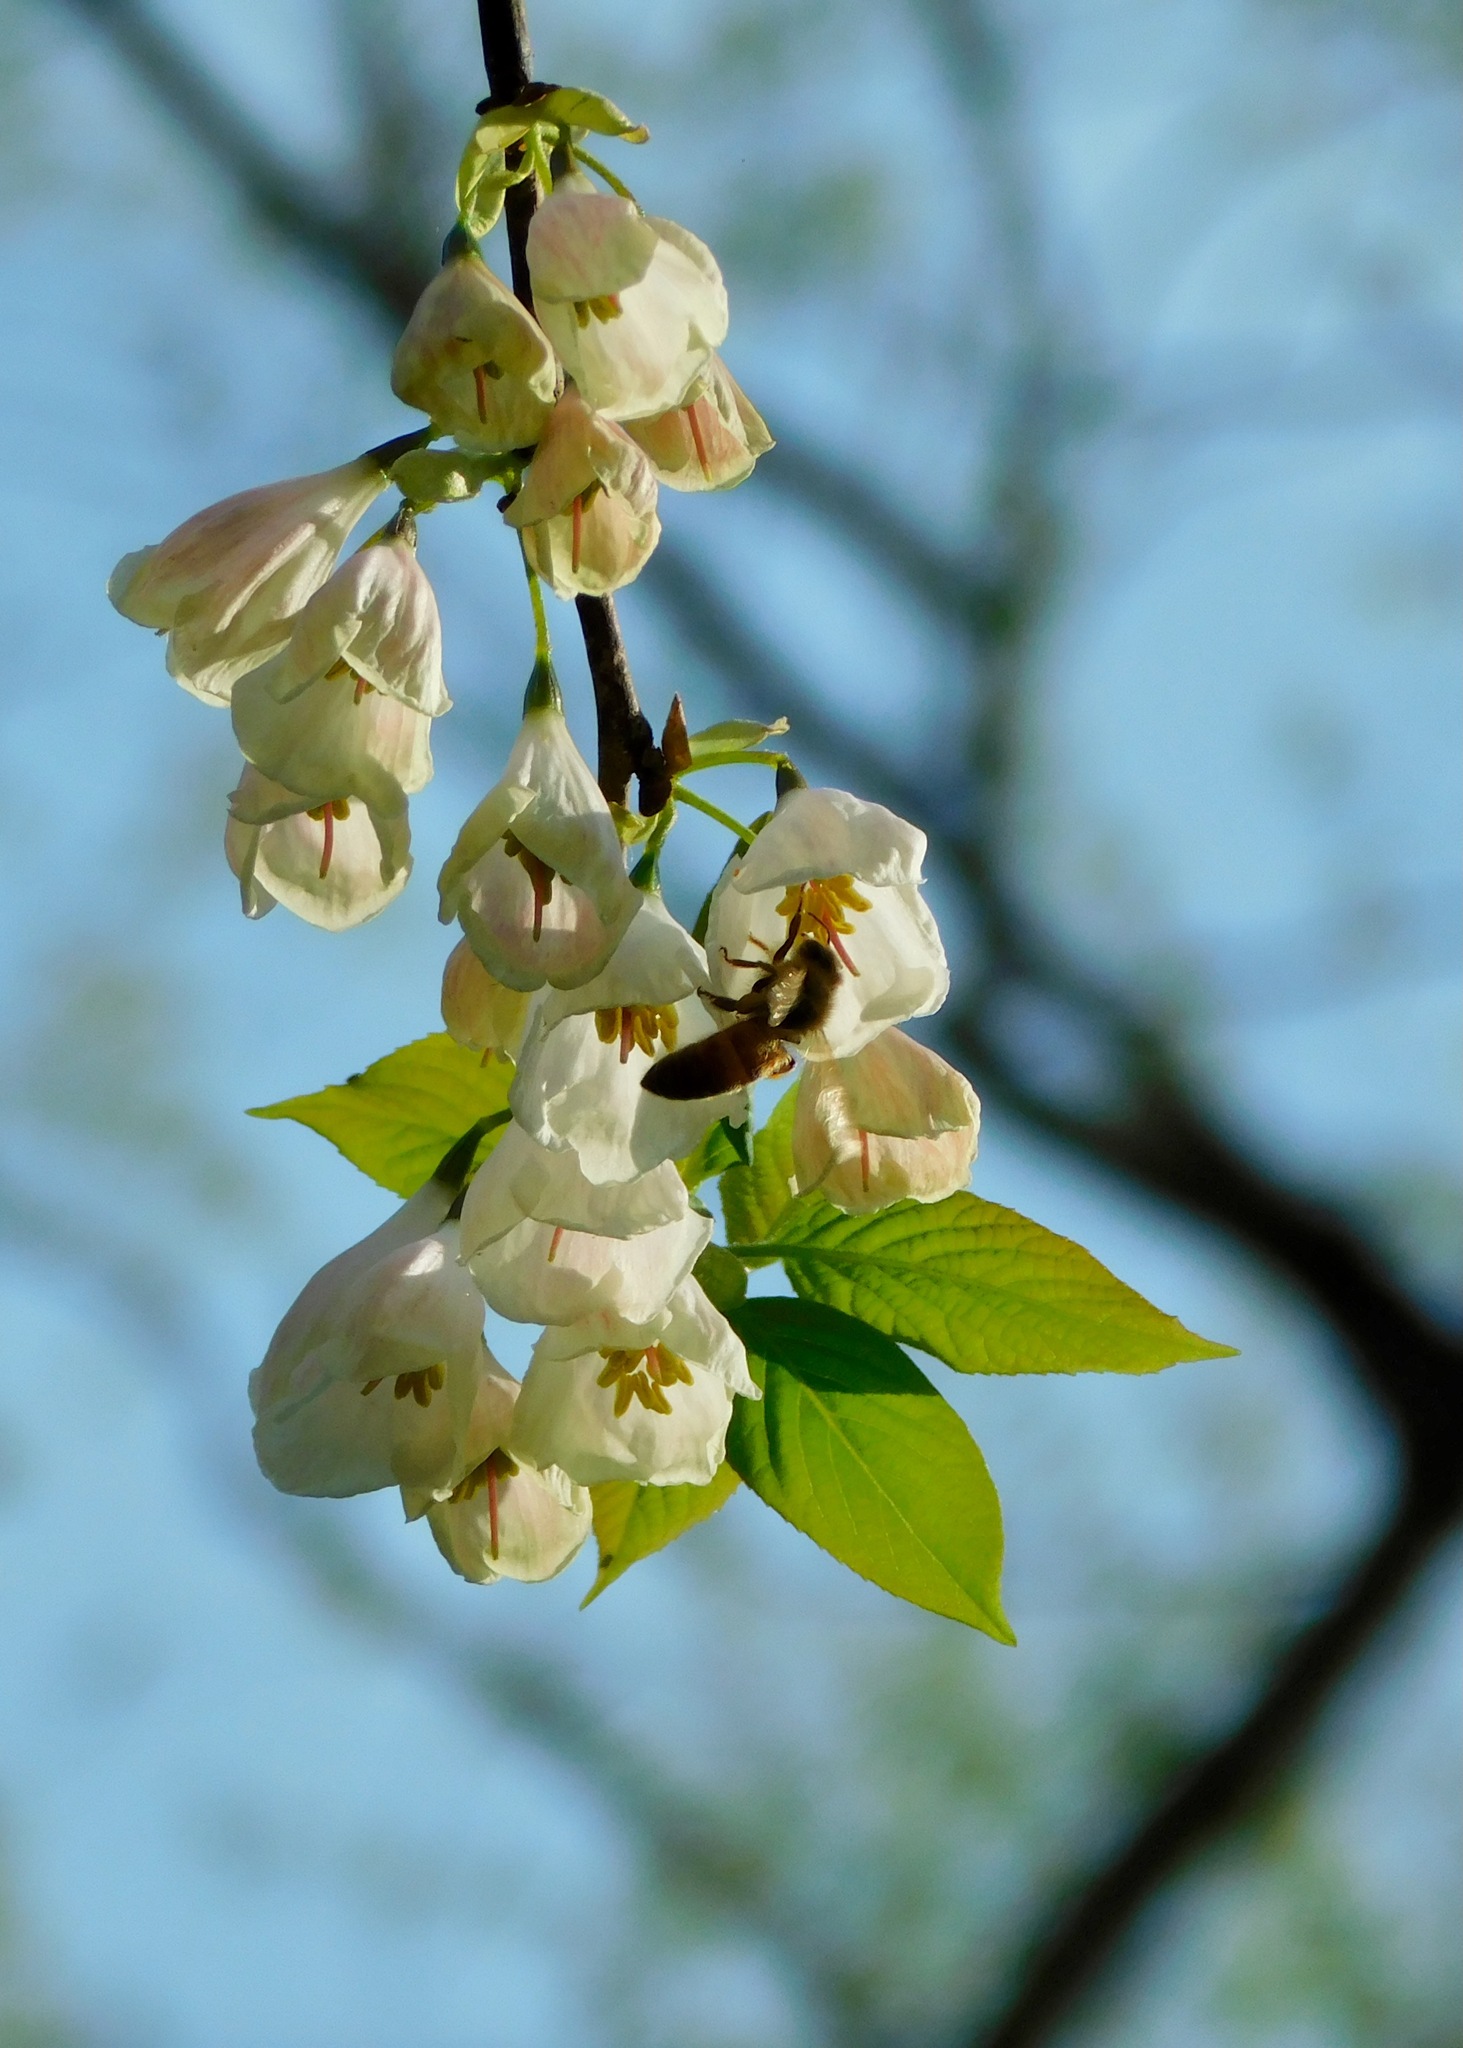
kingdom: Plantae
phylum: Tracheophyta
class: Magnoliopsida
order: Ericales
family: Styracaceae
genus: Halesia
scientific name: Halesia carolina
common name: Carolina silverbell
